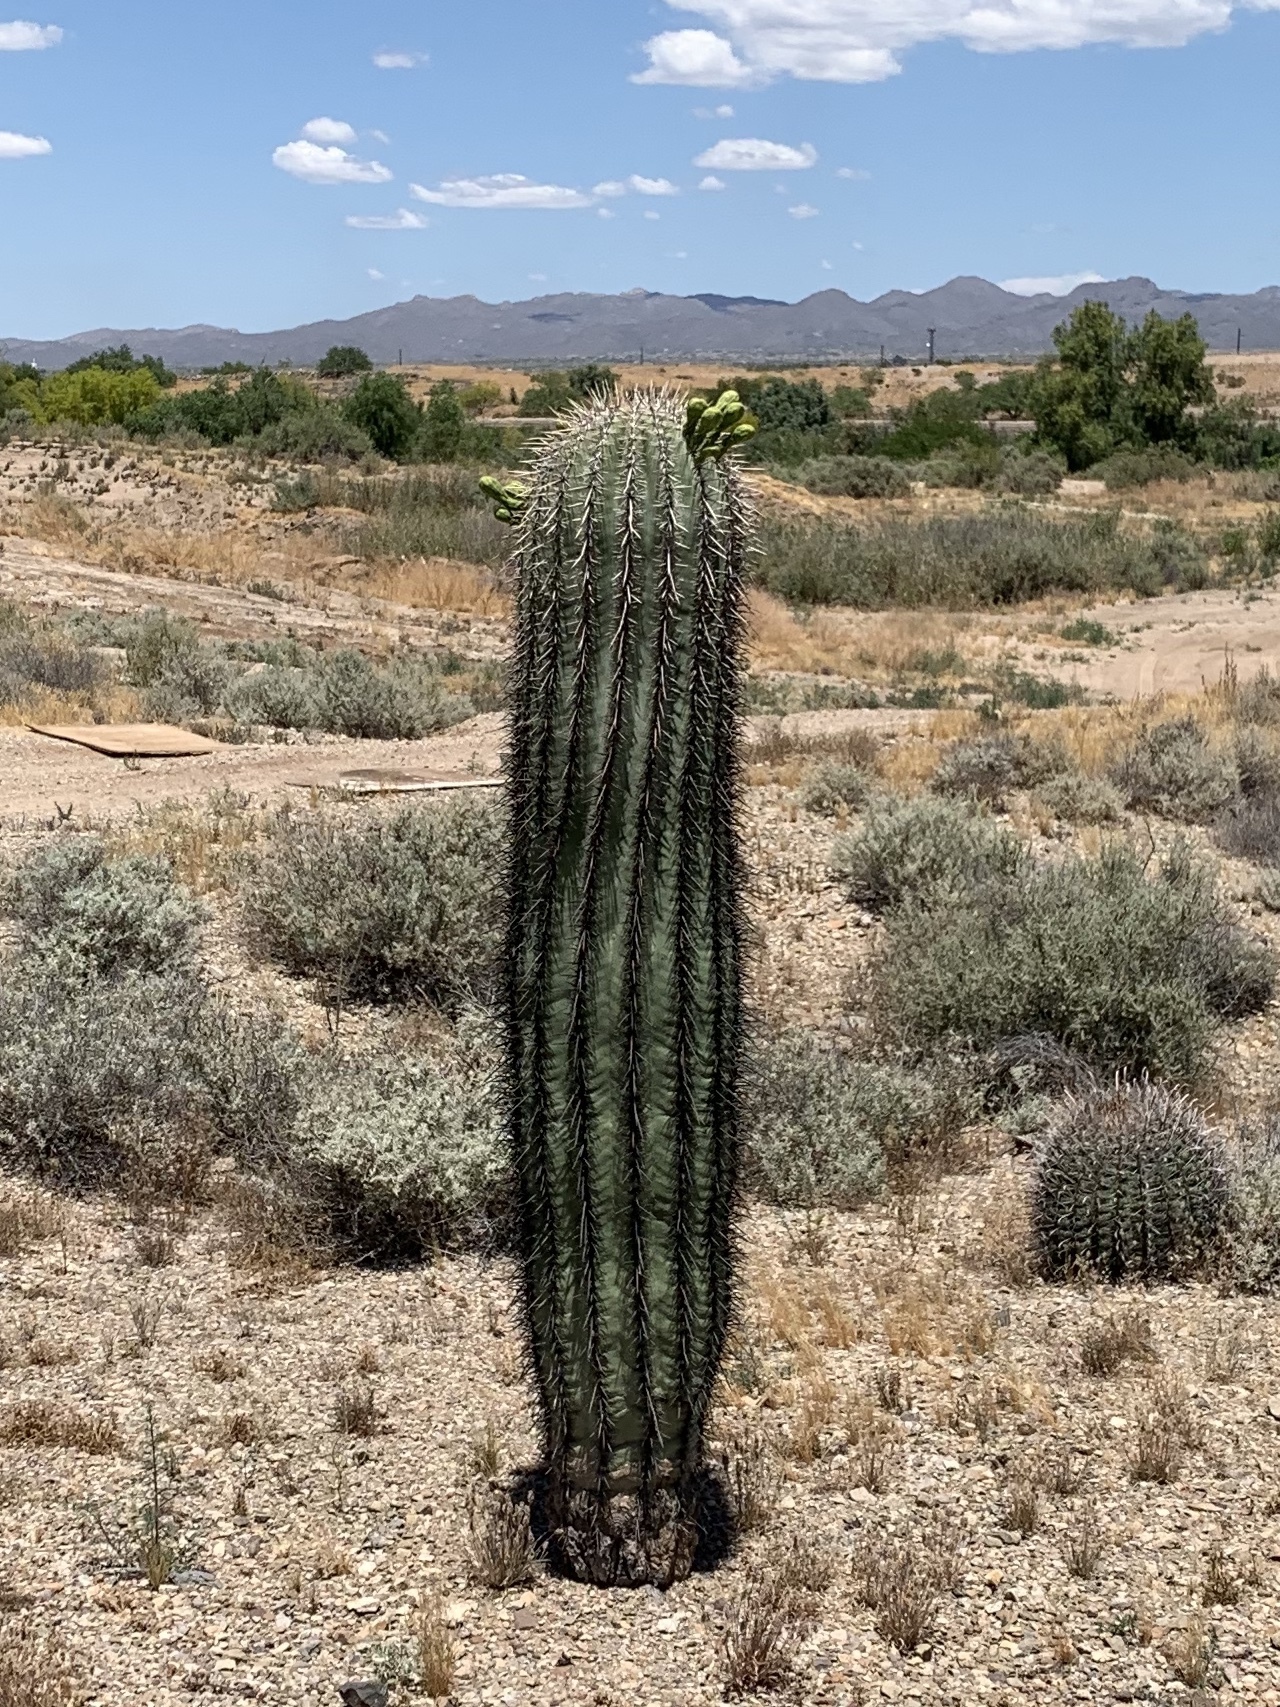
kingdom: Plantae
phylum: Tracheophyta
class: Magnoliopsida
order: Caryophyllales
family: Cactaceae
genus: Carnegiea
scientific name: Carnegiea gigantea
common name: Saguaro
